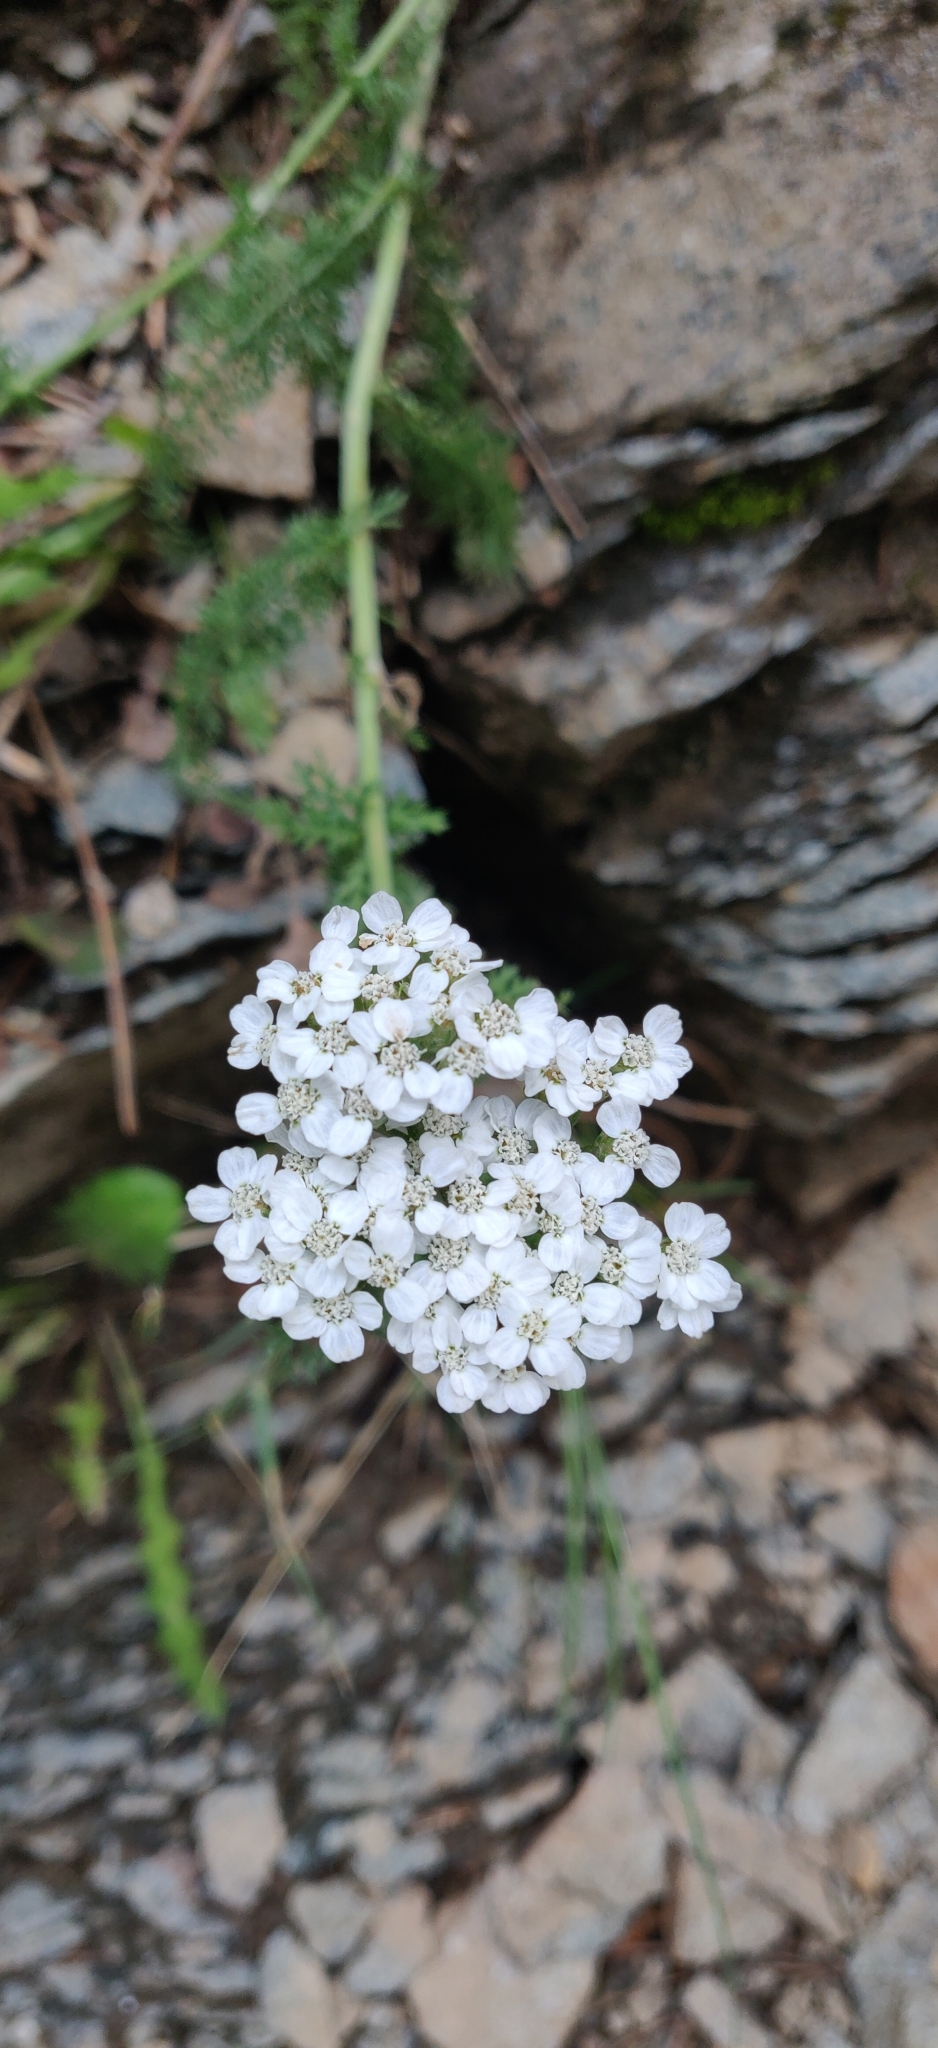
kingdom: Plantae
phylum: Tracheophyta
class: Magnoliopsida
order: Asterales
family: Asteraceae
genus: Achillea
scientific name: Achillea millefolium
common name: Yarrow
